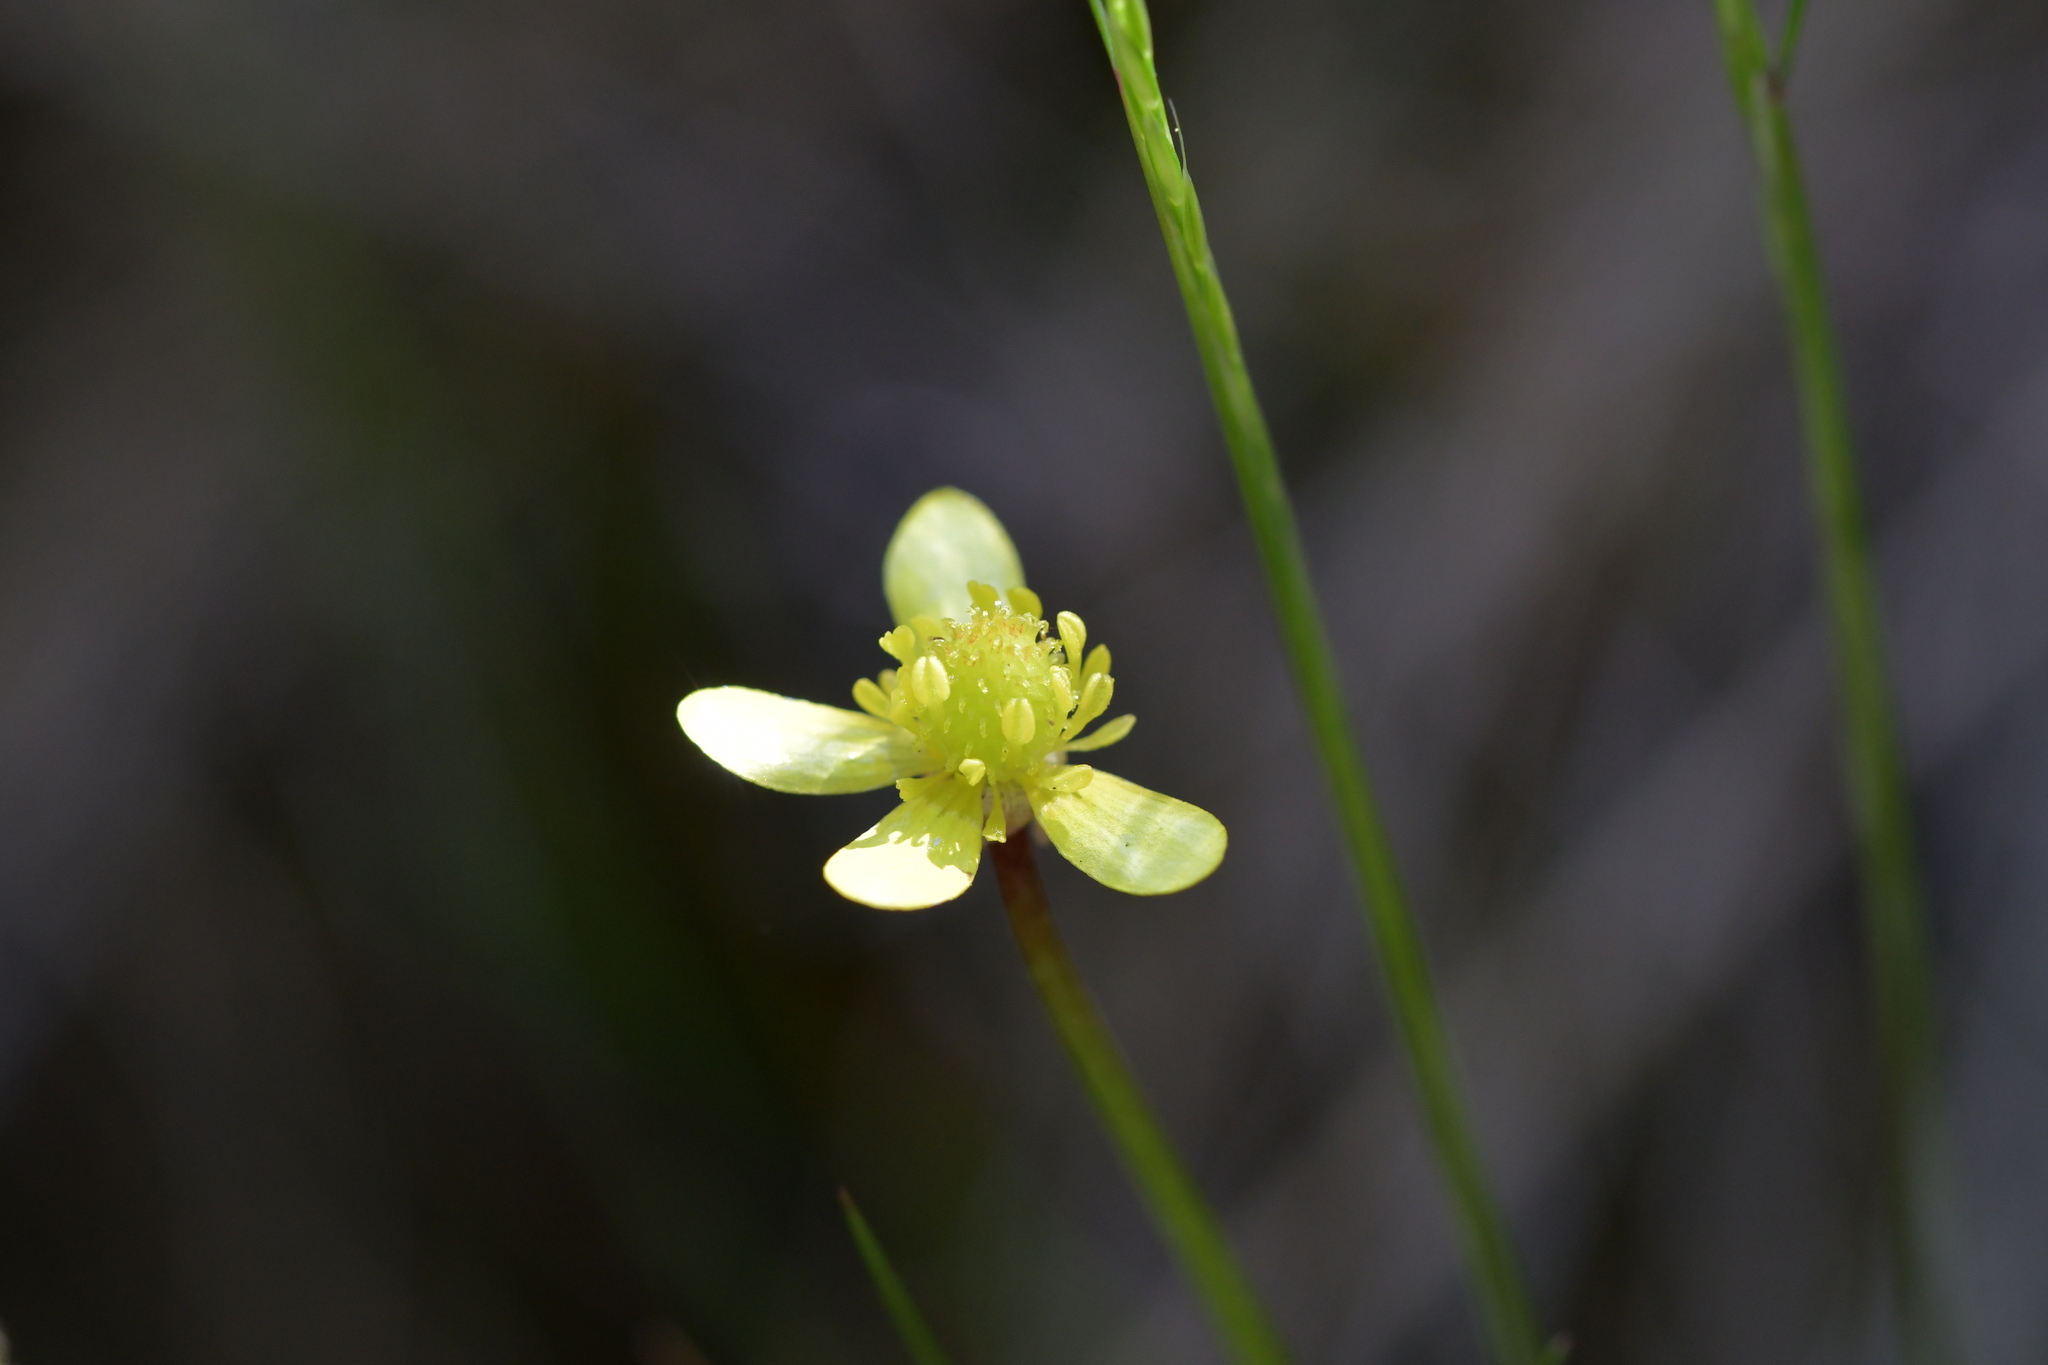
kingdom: Plantae
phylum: Tracheophyta
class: Magnoliopsida
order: Ranunculales
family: Ranunculaceae
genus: Ranunculus
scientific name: Ranunculus reflexus
